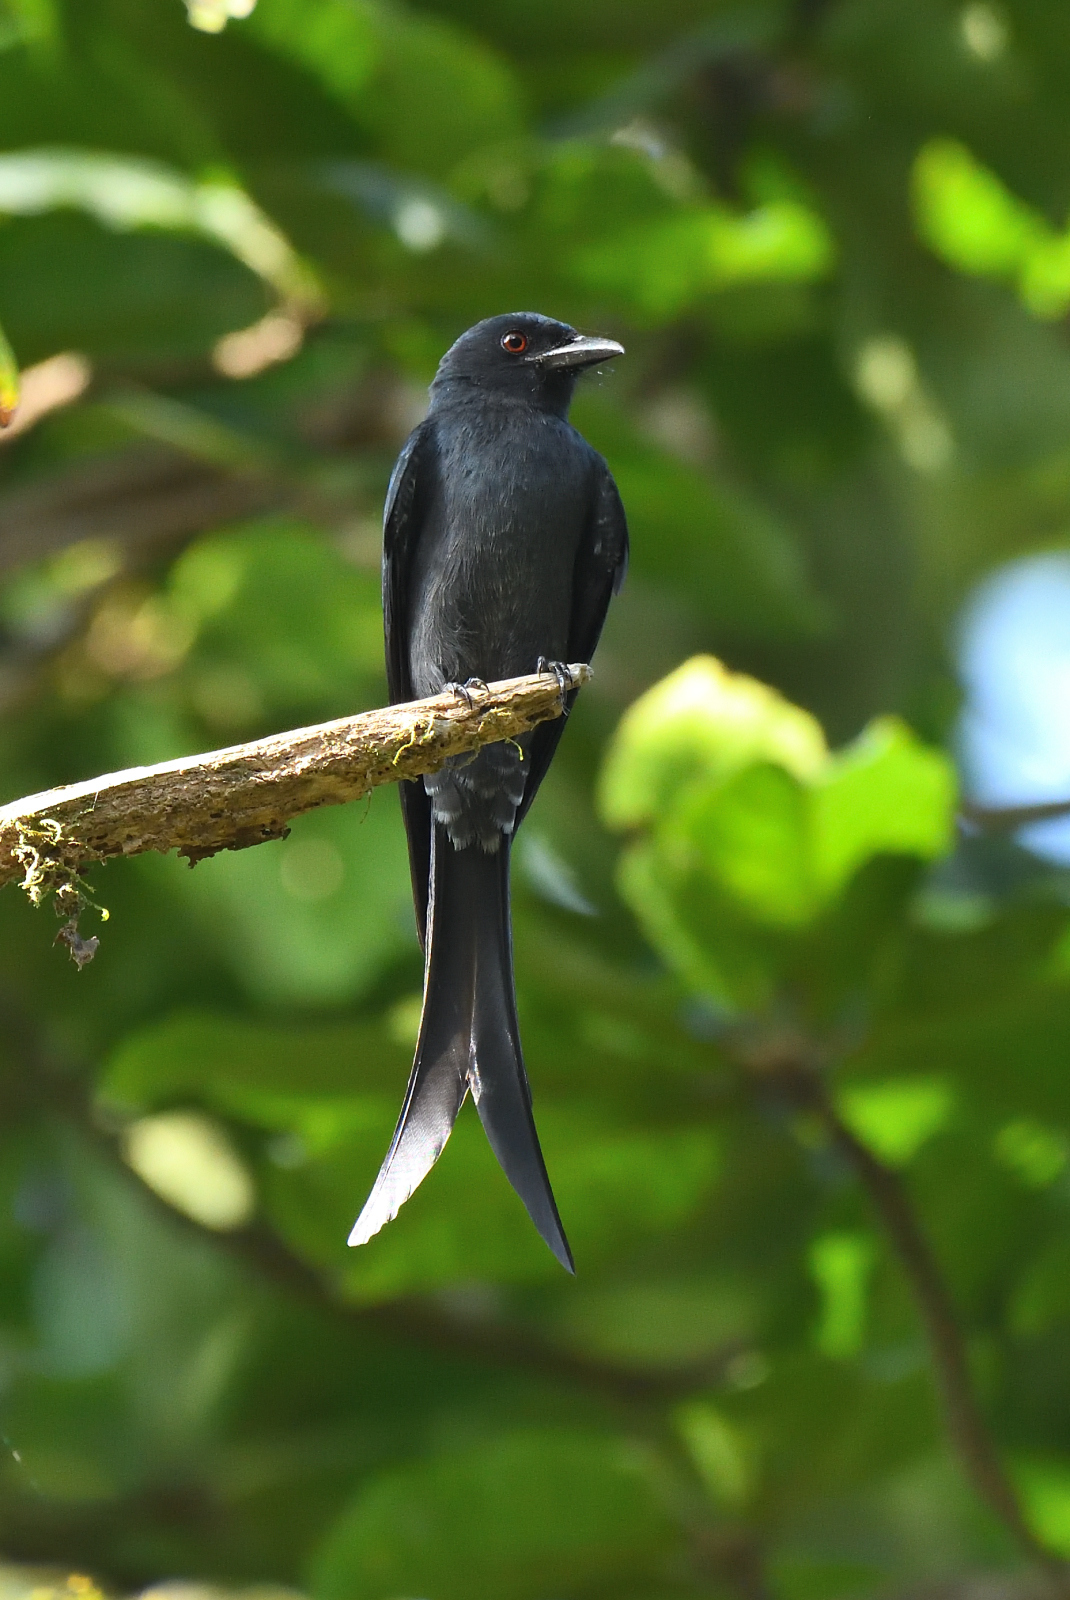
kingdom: Animalia
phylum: Chordata
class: Aves
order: Passeriformes
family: Dicruridae
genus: Dicrurus
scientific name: Dicrurus leucophaeus
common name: Ashy drongo
